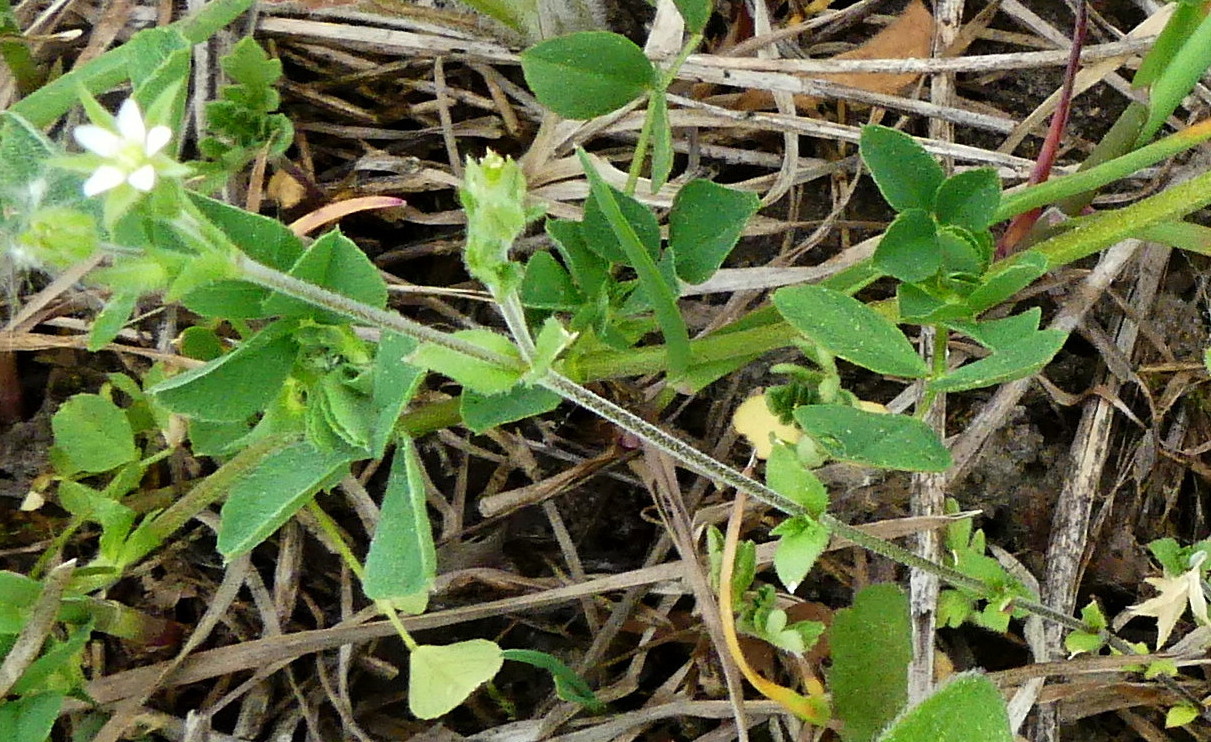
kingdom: Plantae
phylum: Tracheophyta
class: Magnoliopsida
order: Caryophyllales
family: Caryophyllaceae
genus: Arenaria
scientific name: Arenaria serpyllifolia
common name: Thyme-leaved sandwort
